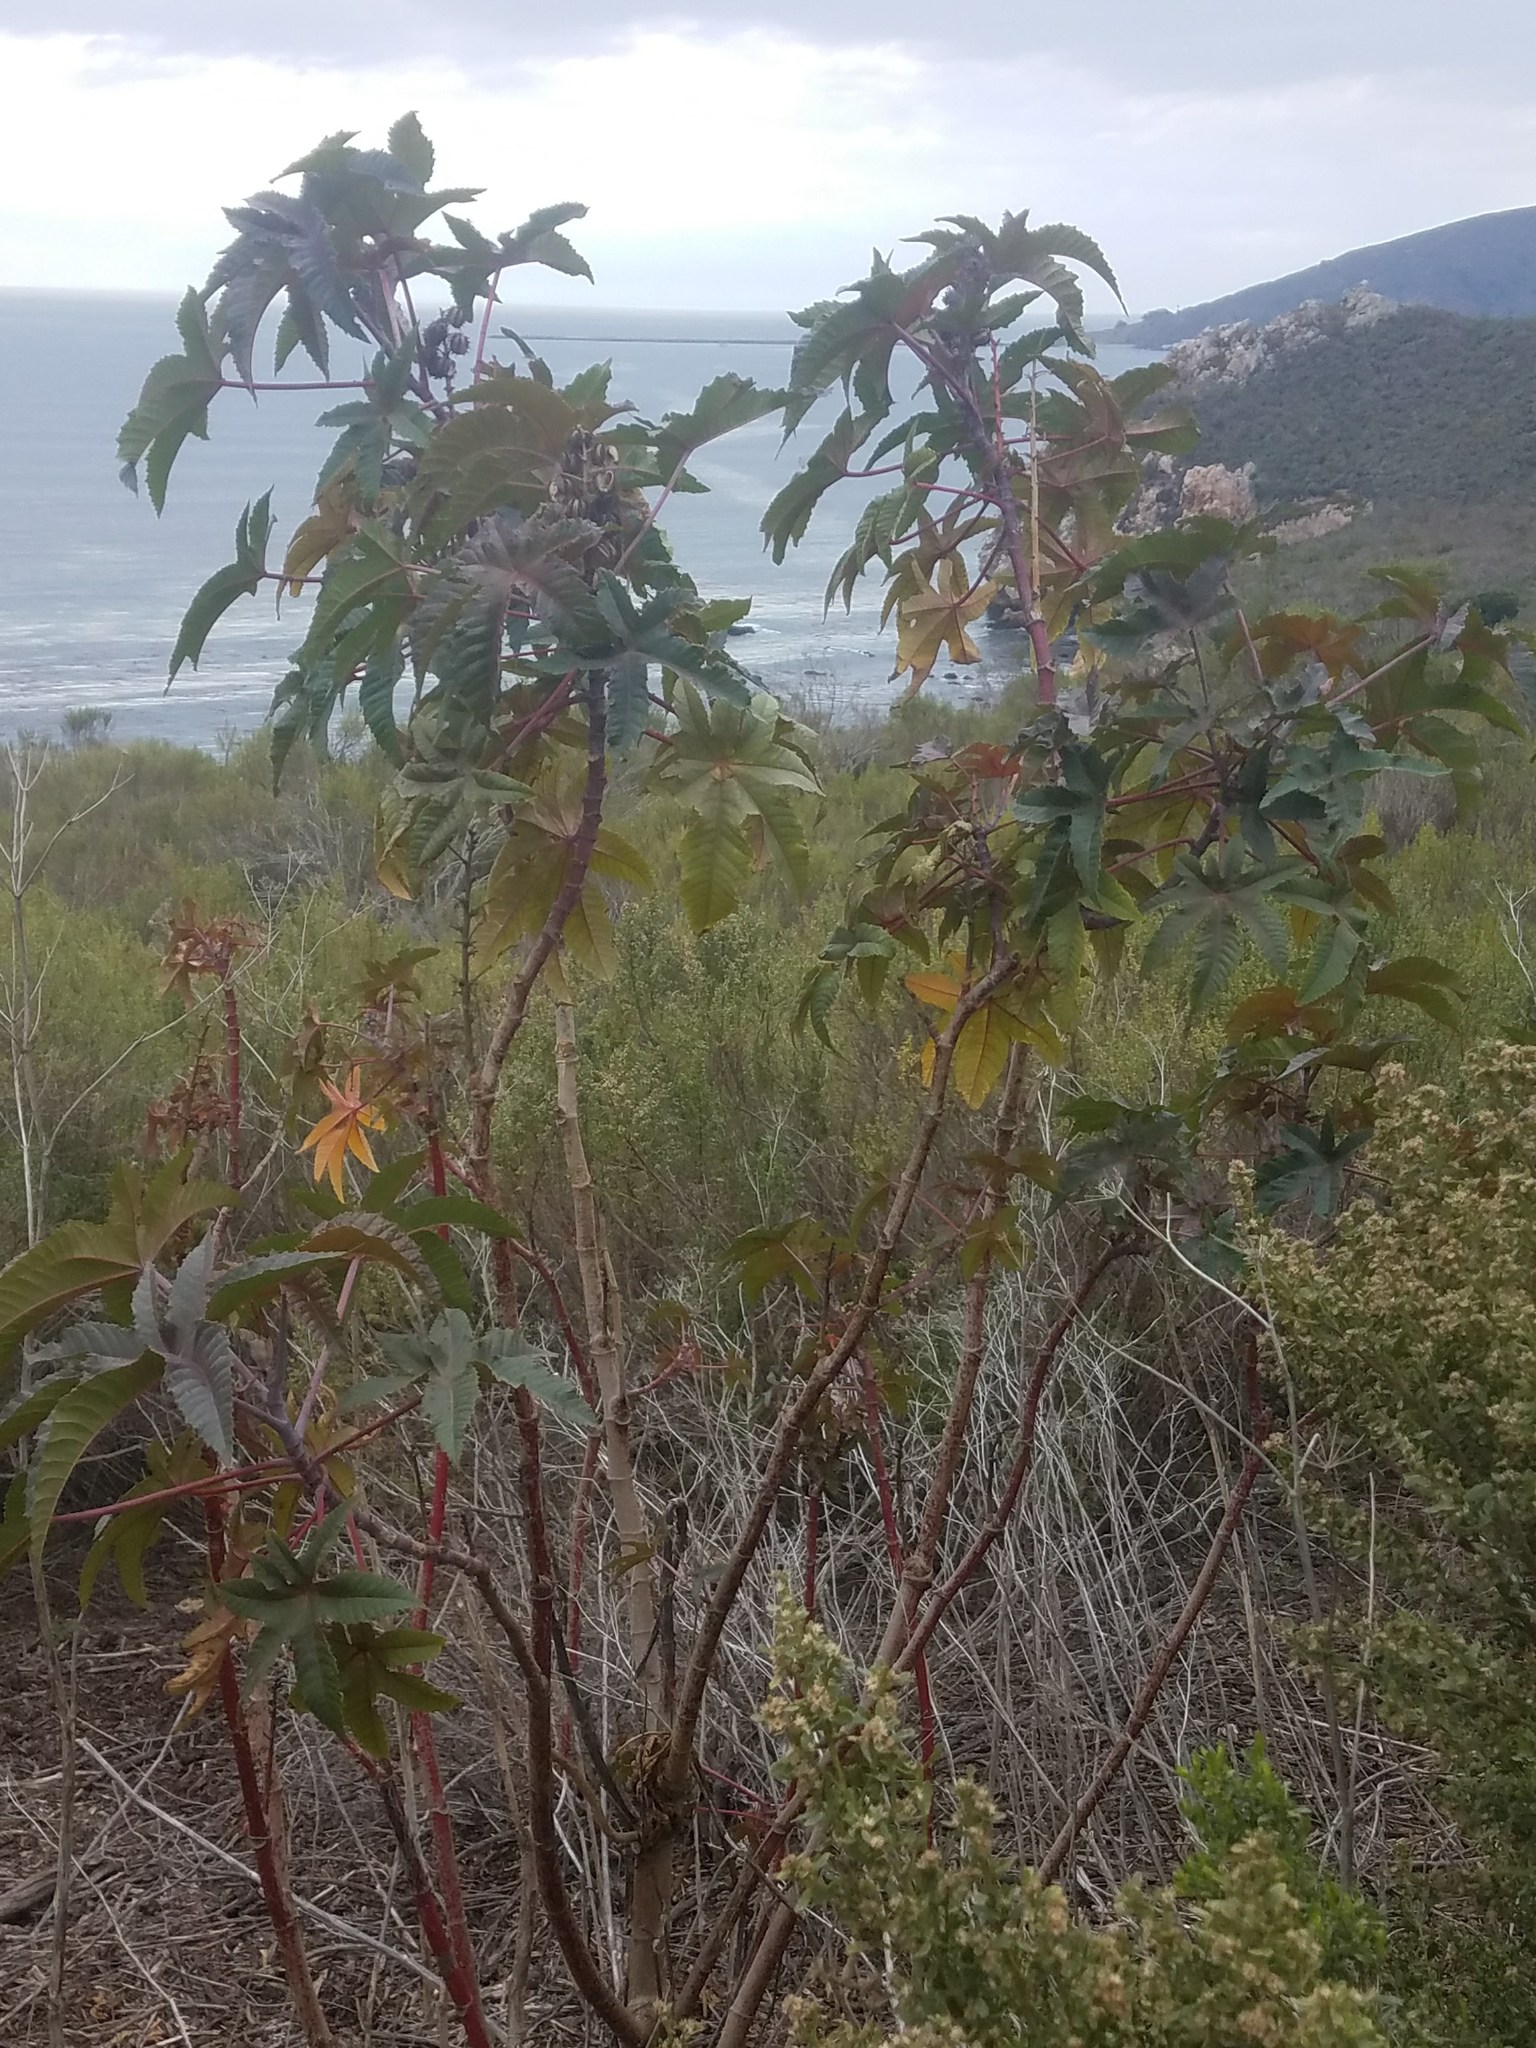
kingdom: Plantae
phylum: Tracheophyta
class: Magnoliopsida
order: Malpighiales
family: Euphorbiaceae
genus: Ricinus
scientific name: Ricinus communis
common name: Castor-oil-plant
